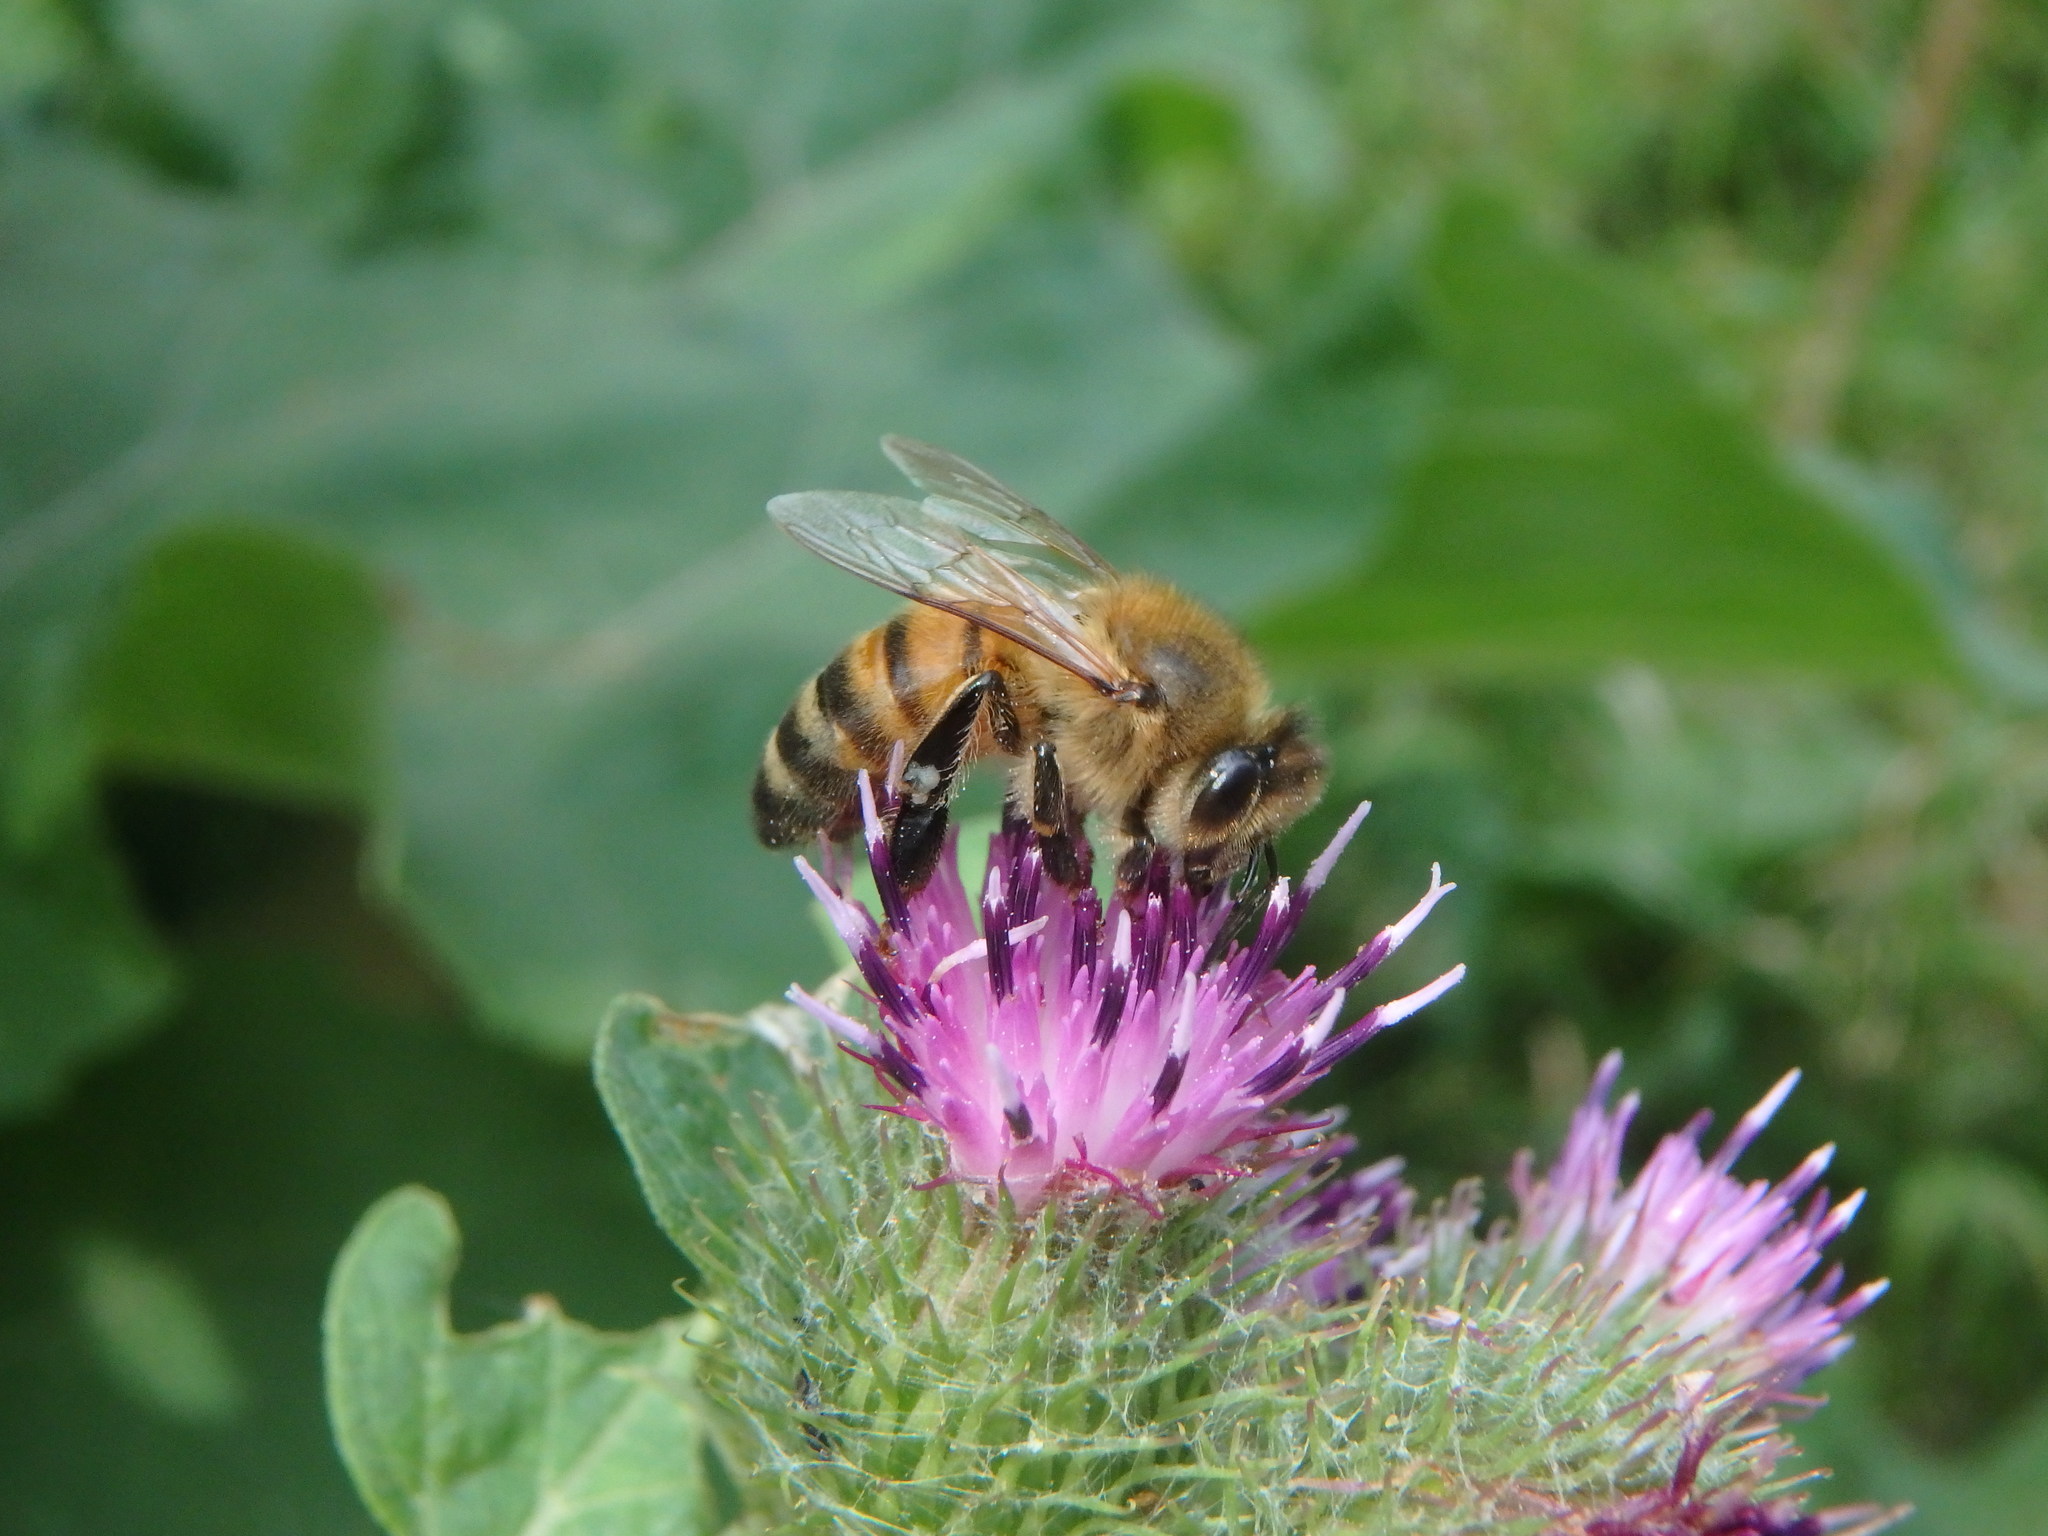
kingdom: Animalia
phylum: Arthropoda
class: Insecta
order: Hymenoptera
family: Apidae
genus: Apis
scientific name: Apis mellifera
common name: Honey bee
